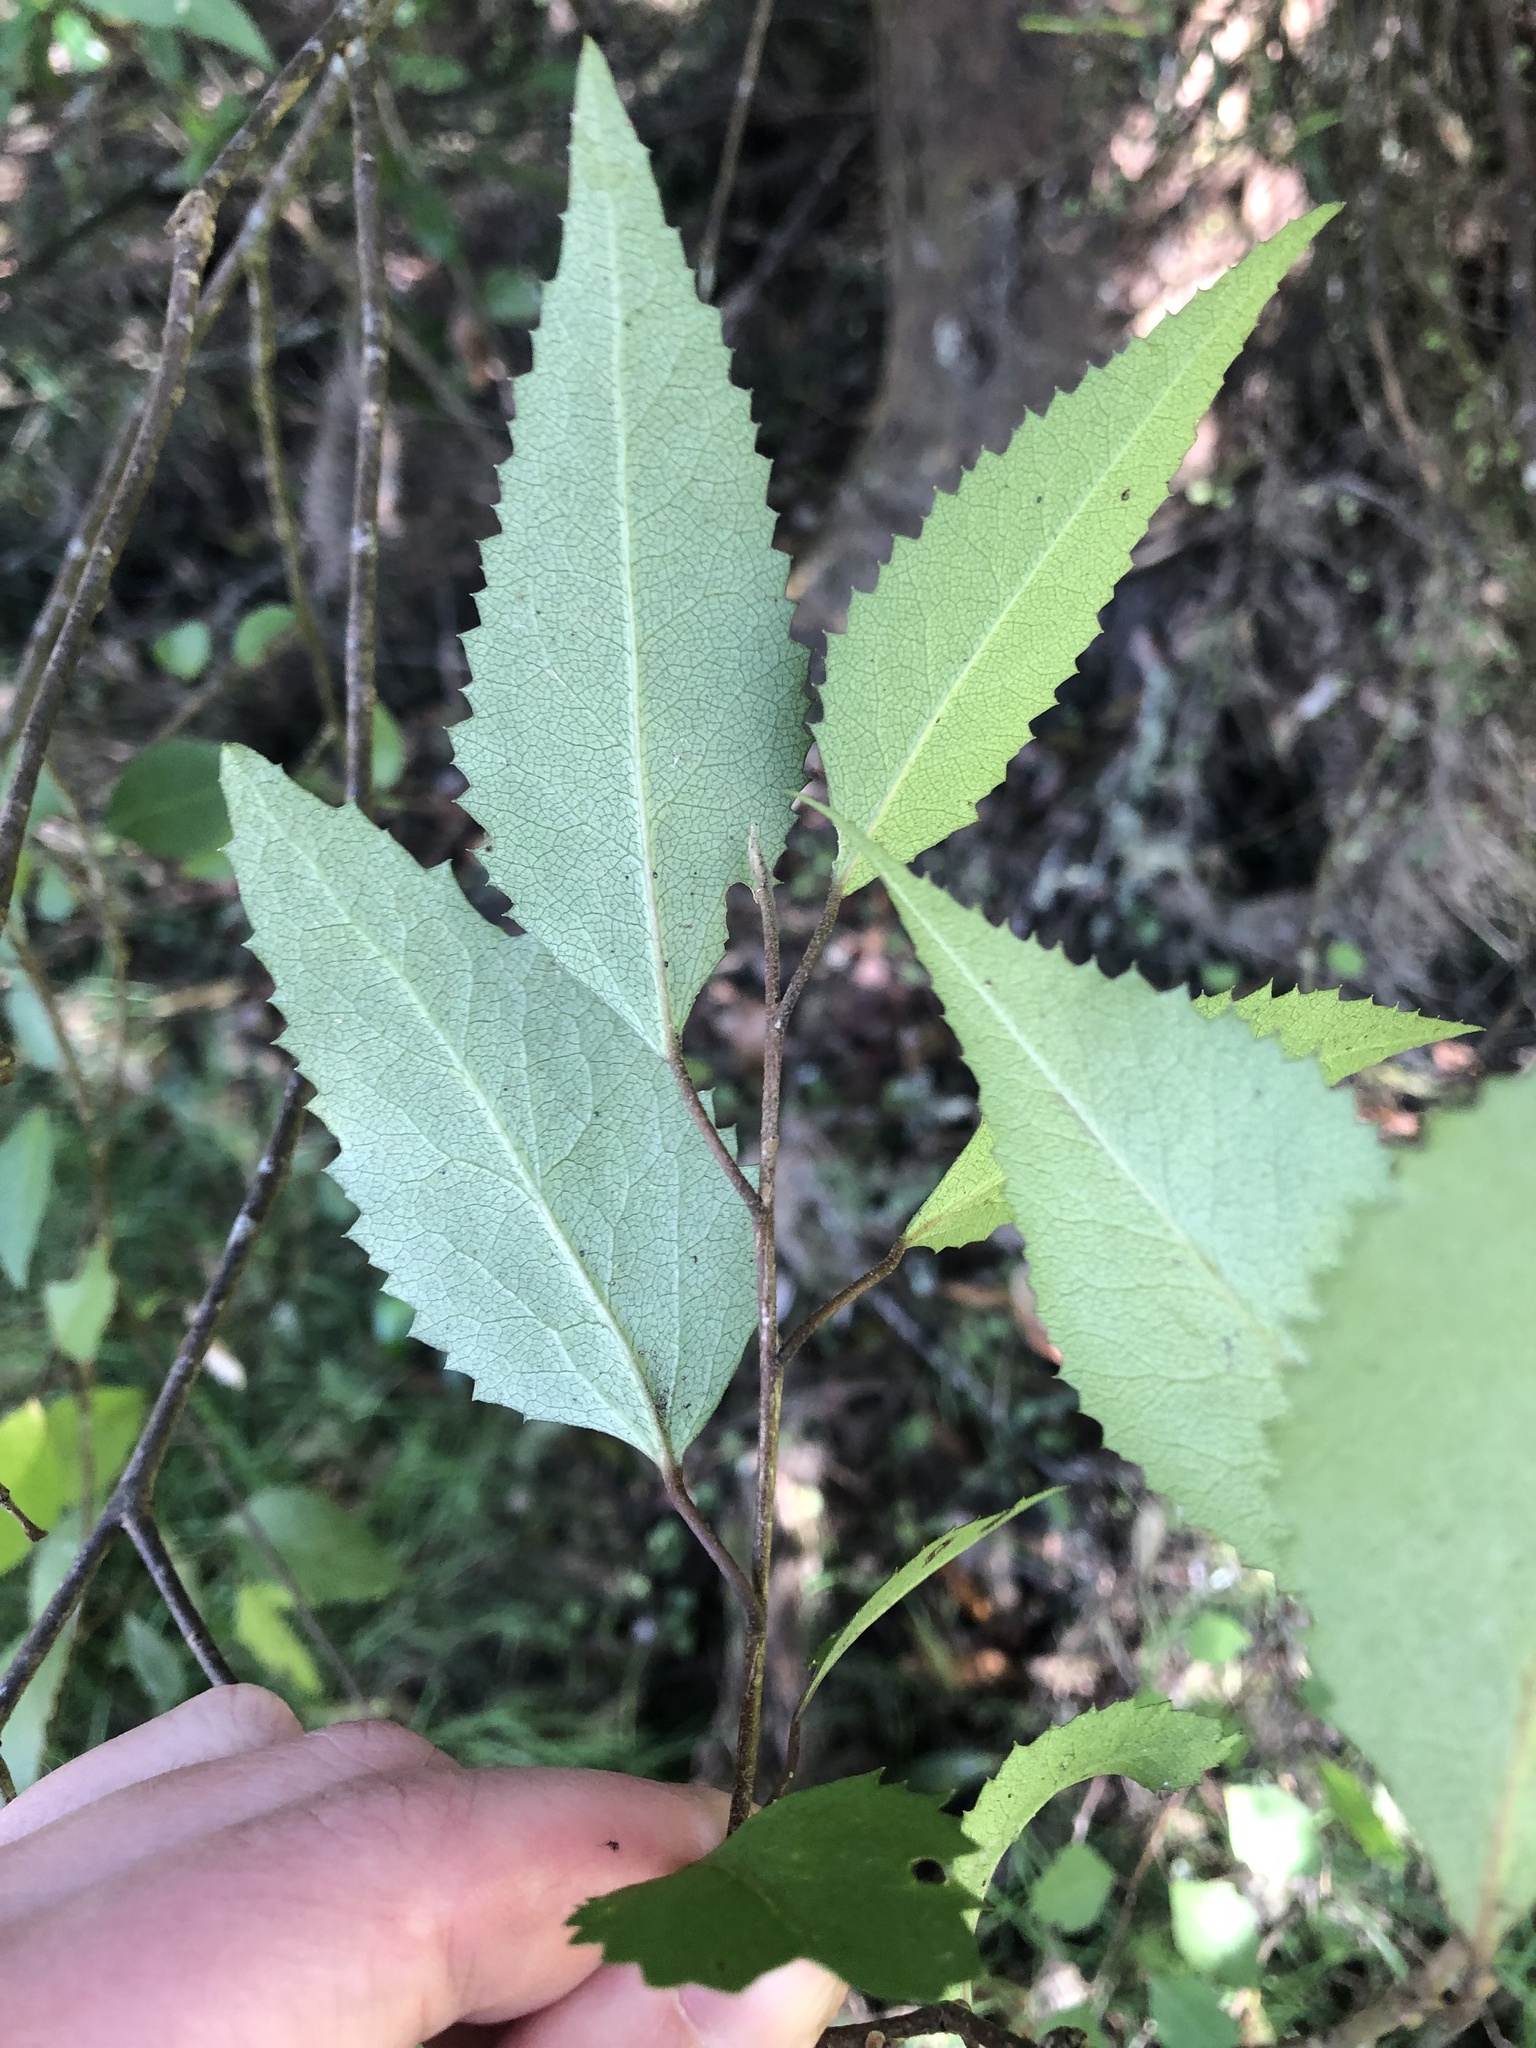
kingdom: Plantae
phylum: Tracheophyta
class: Magnoliopsida
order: Malvales
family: Malvaceae
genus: Hoheria
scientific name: Hoheria sexstylosa
